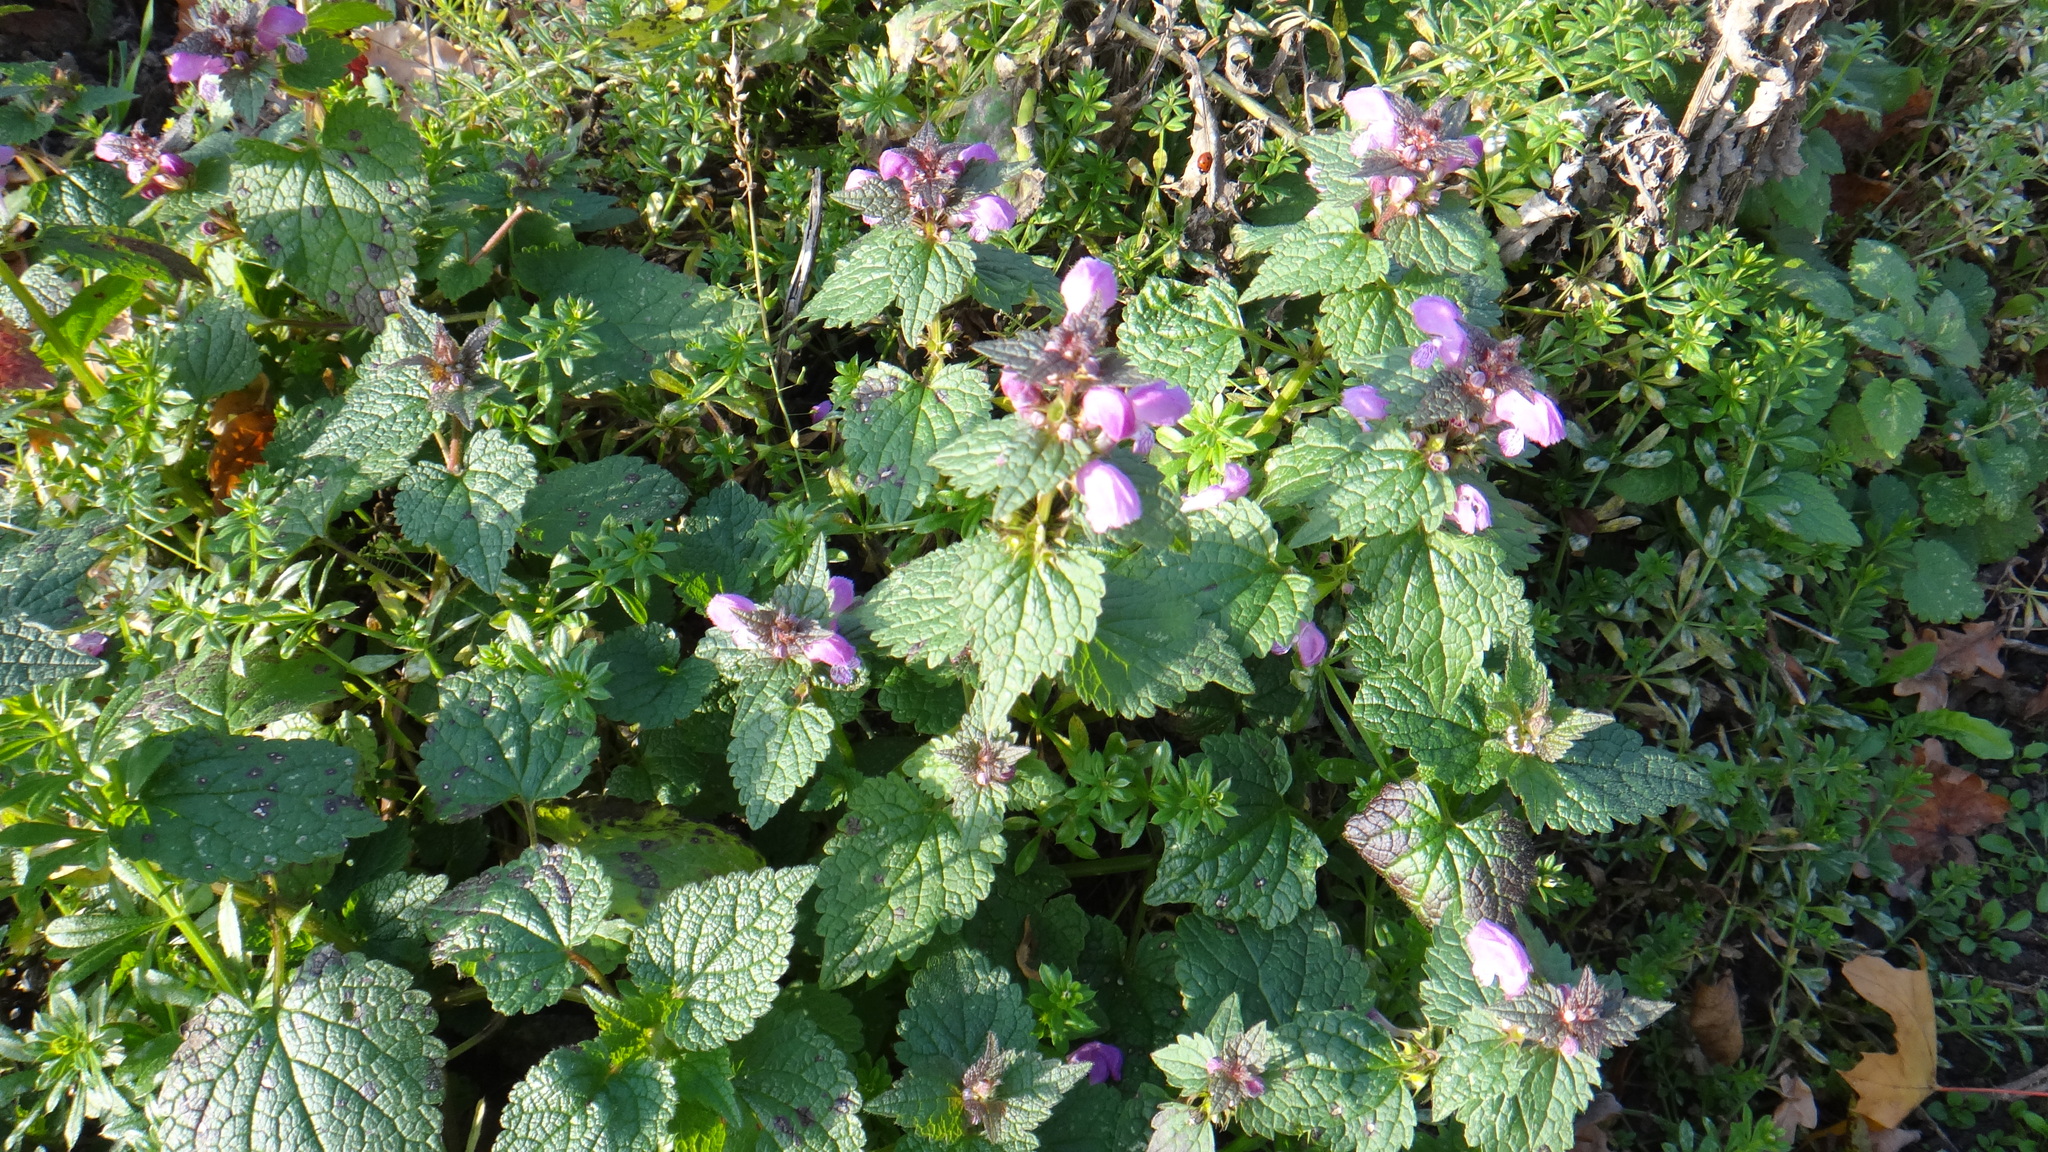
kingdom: Plantae
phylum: Tracheophyta
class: Magnoliopsida
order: Lamiales
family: Lamiaceae
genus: Lamium
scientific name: Lamium maculatum
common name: Spotted dead-nettle
